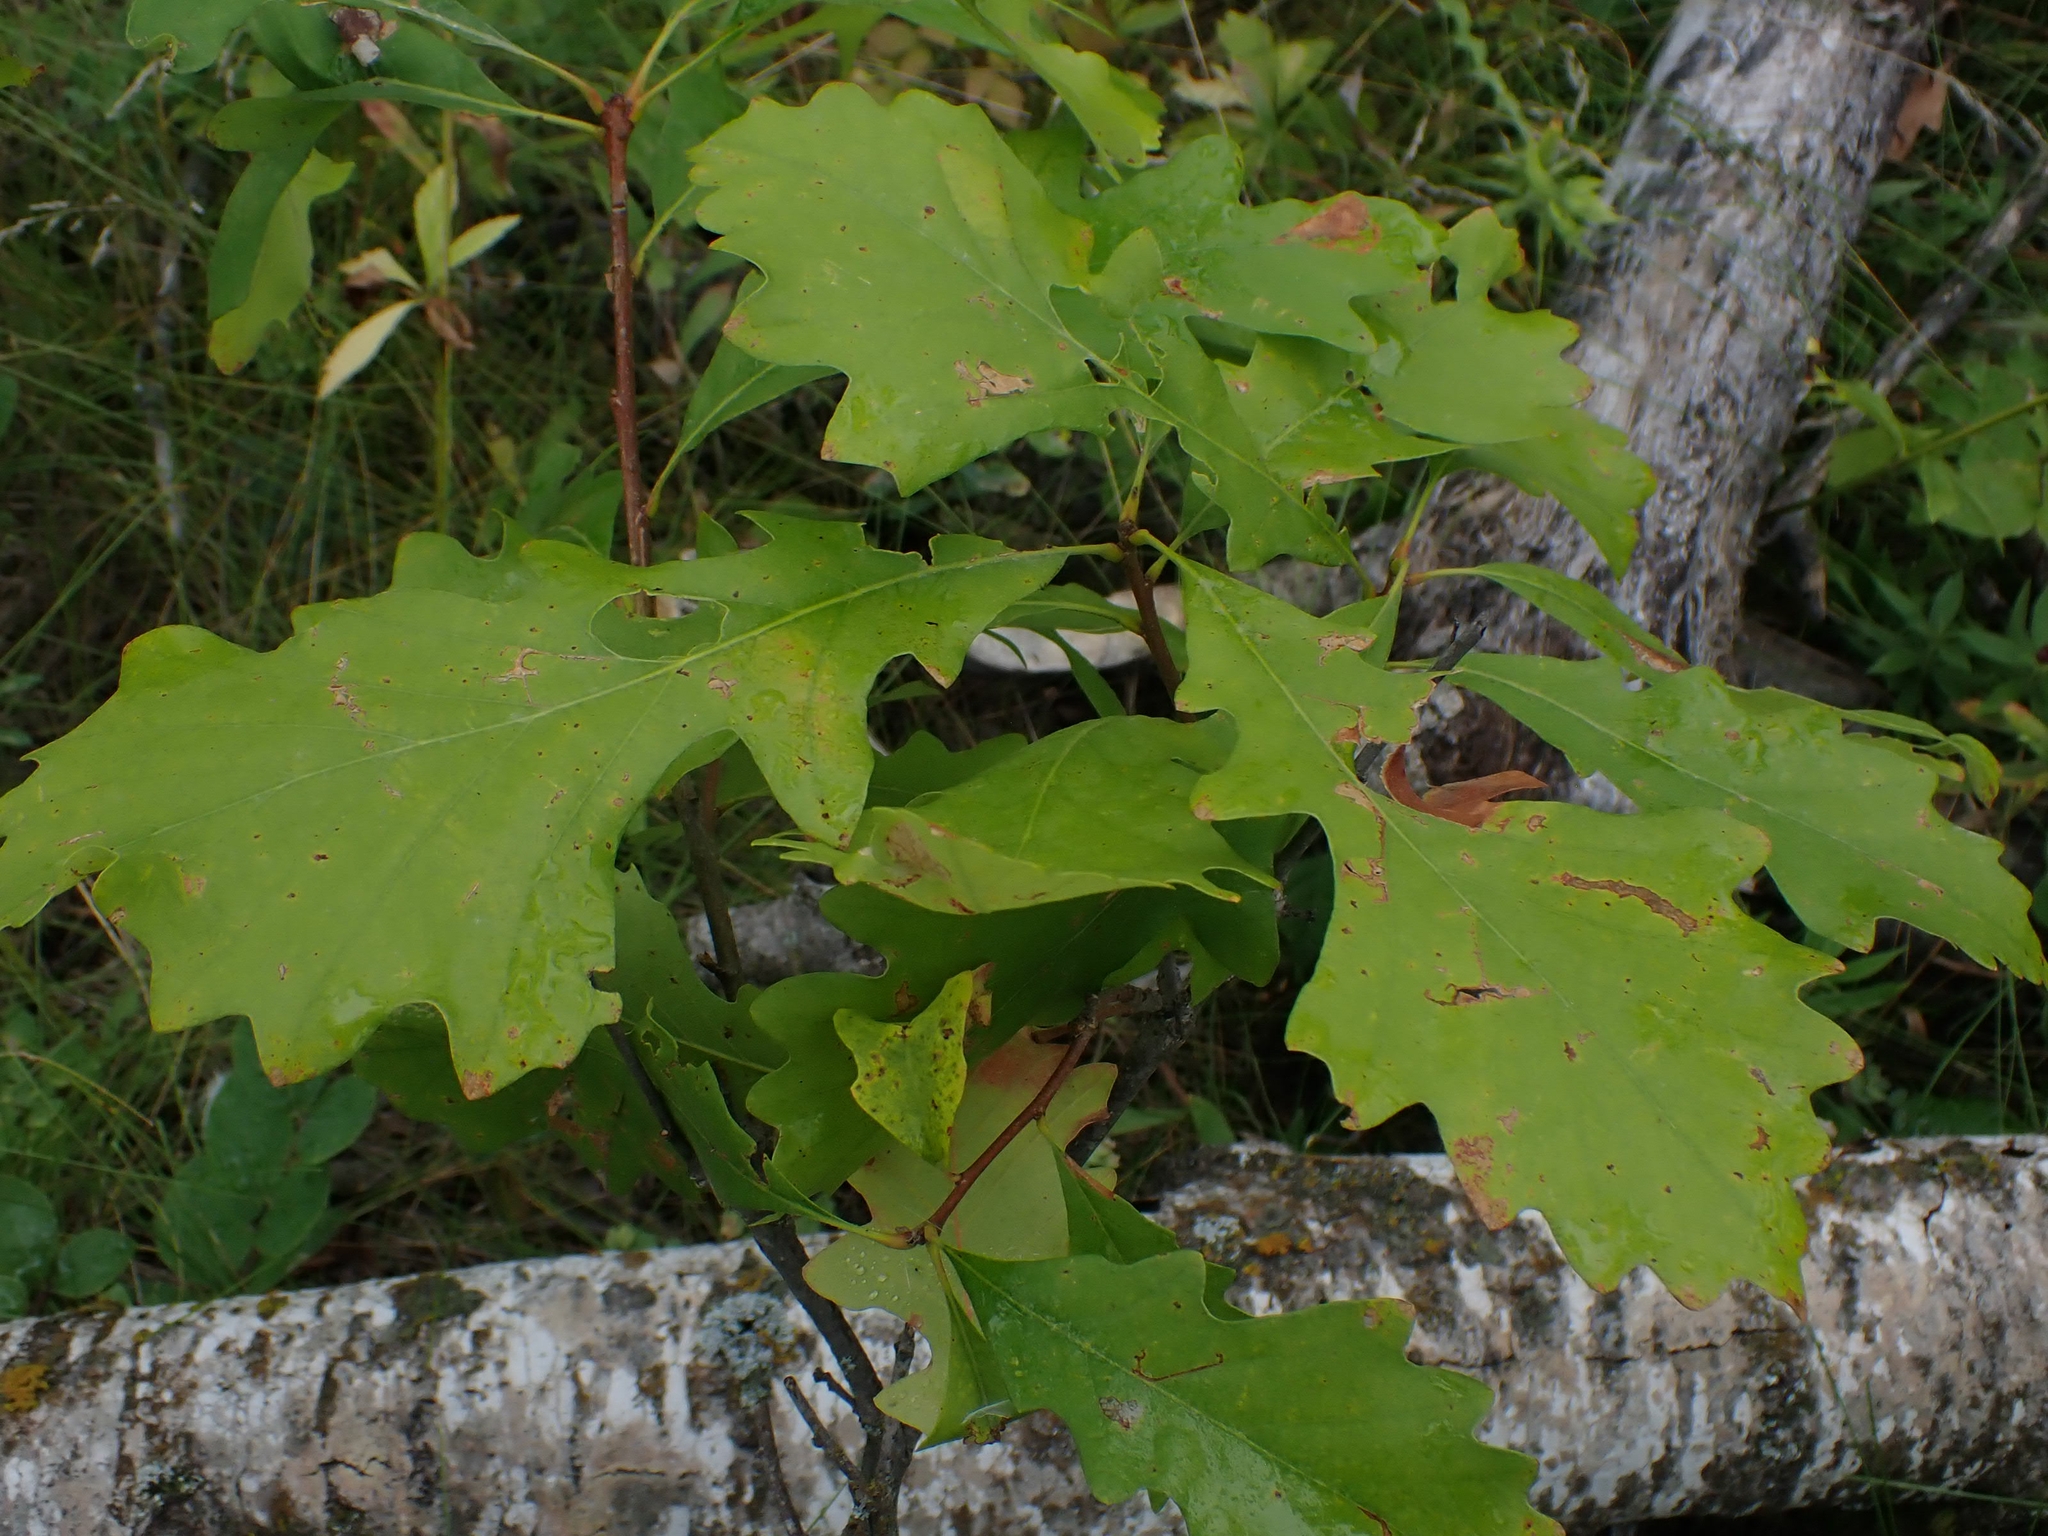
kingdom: Plantae
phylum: Tracheophyta
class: Magnoliopsida
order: Fagales
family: Fagaceae
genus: Quercus
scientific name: Quercus macrocarpa
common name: Bur oak
